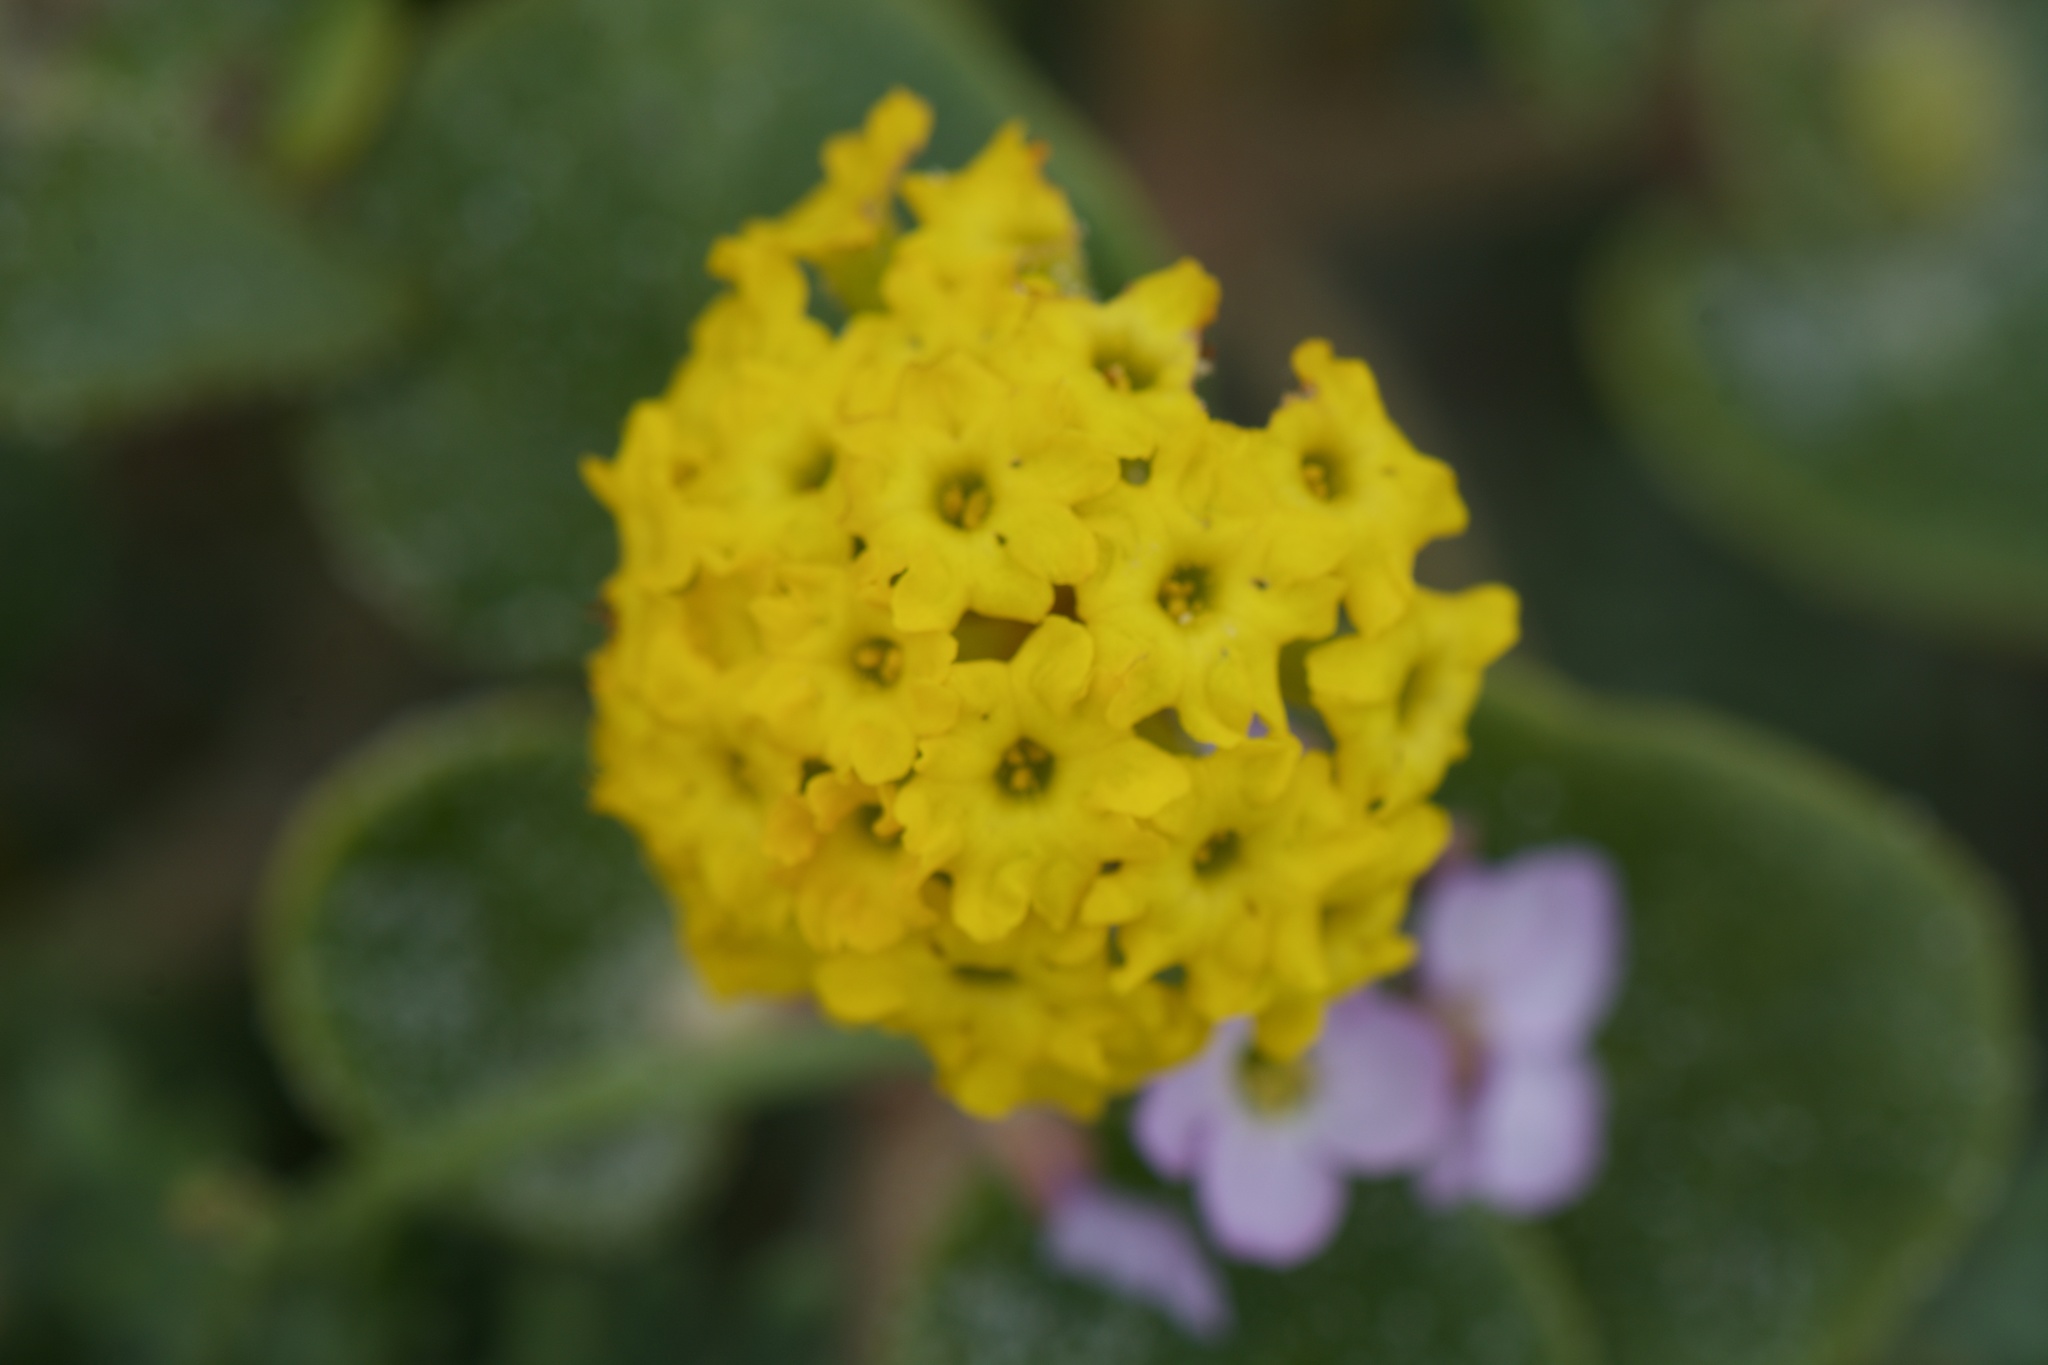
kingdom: Plantae
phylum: Tracheophyta
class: Magnoliopsida
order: Caryophyllales
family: Nyctaginaceae
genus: Abronia
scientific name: Abronia latifolia
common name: Yellow sand-verbena
